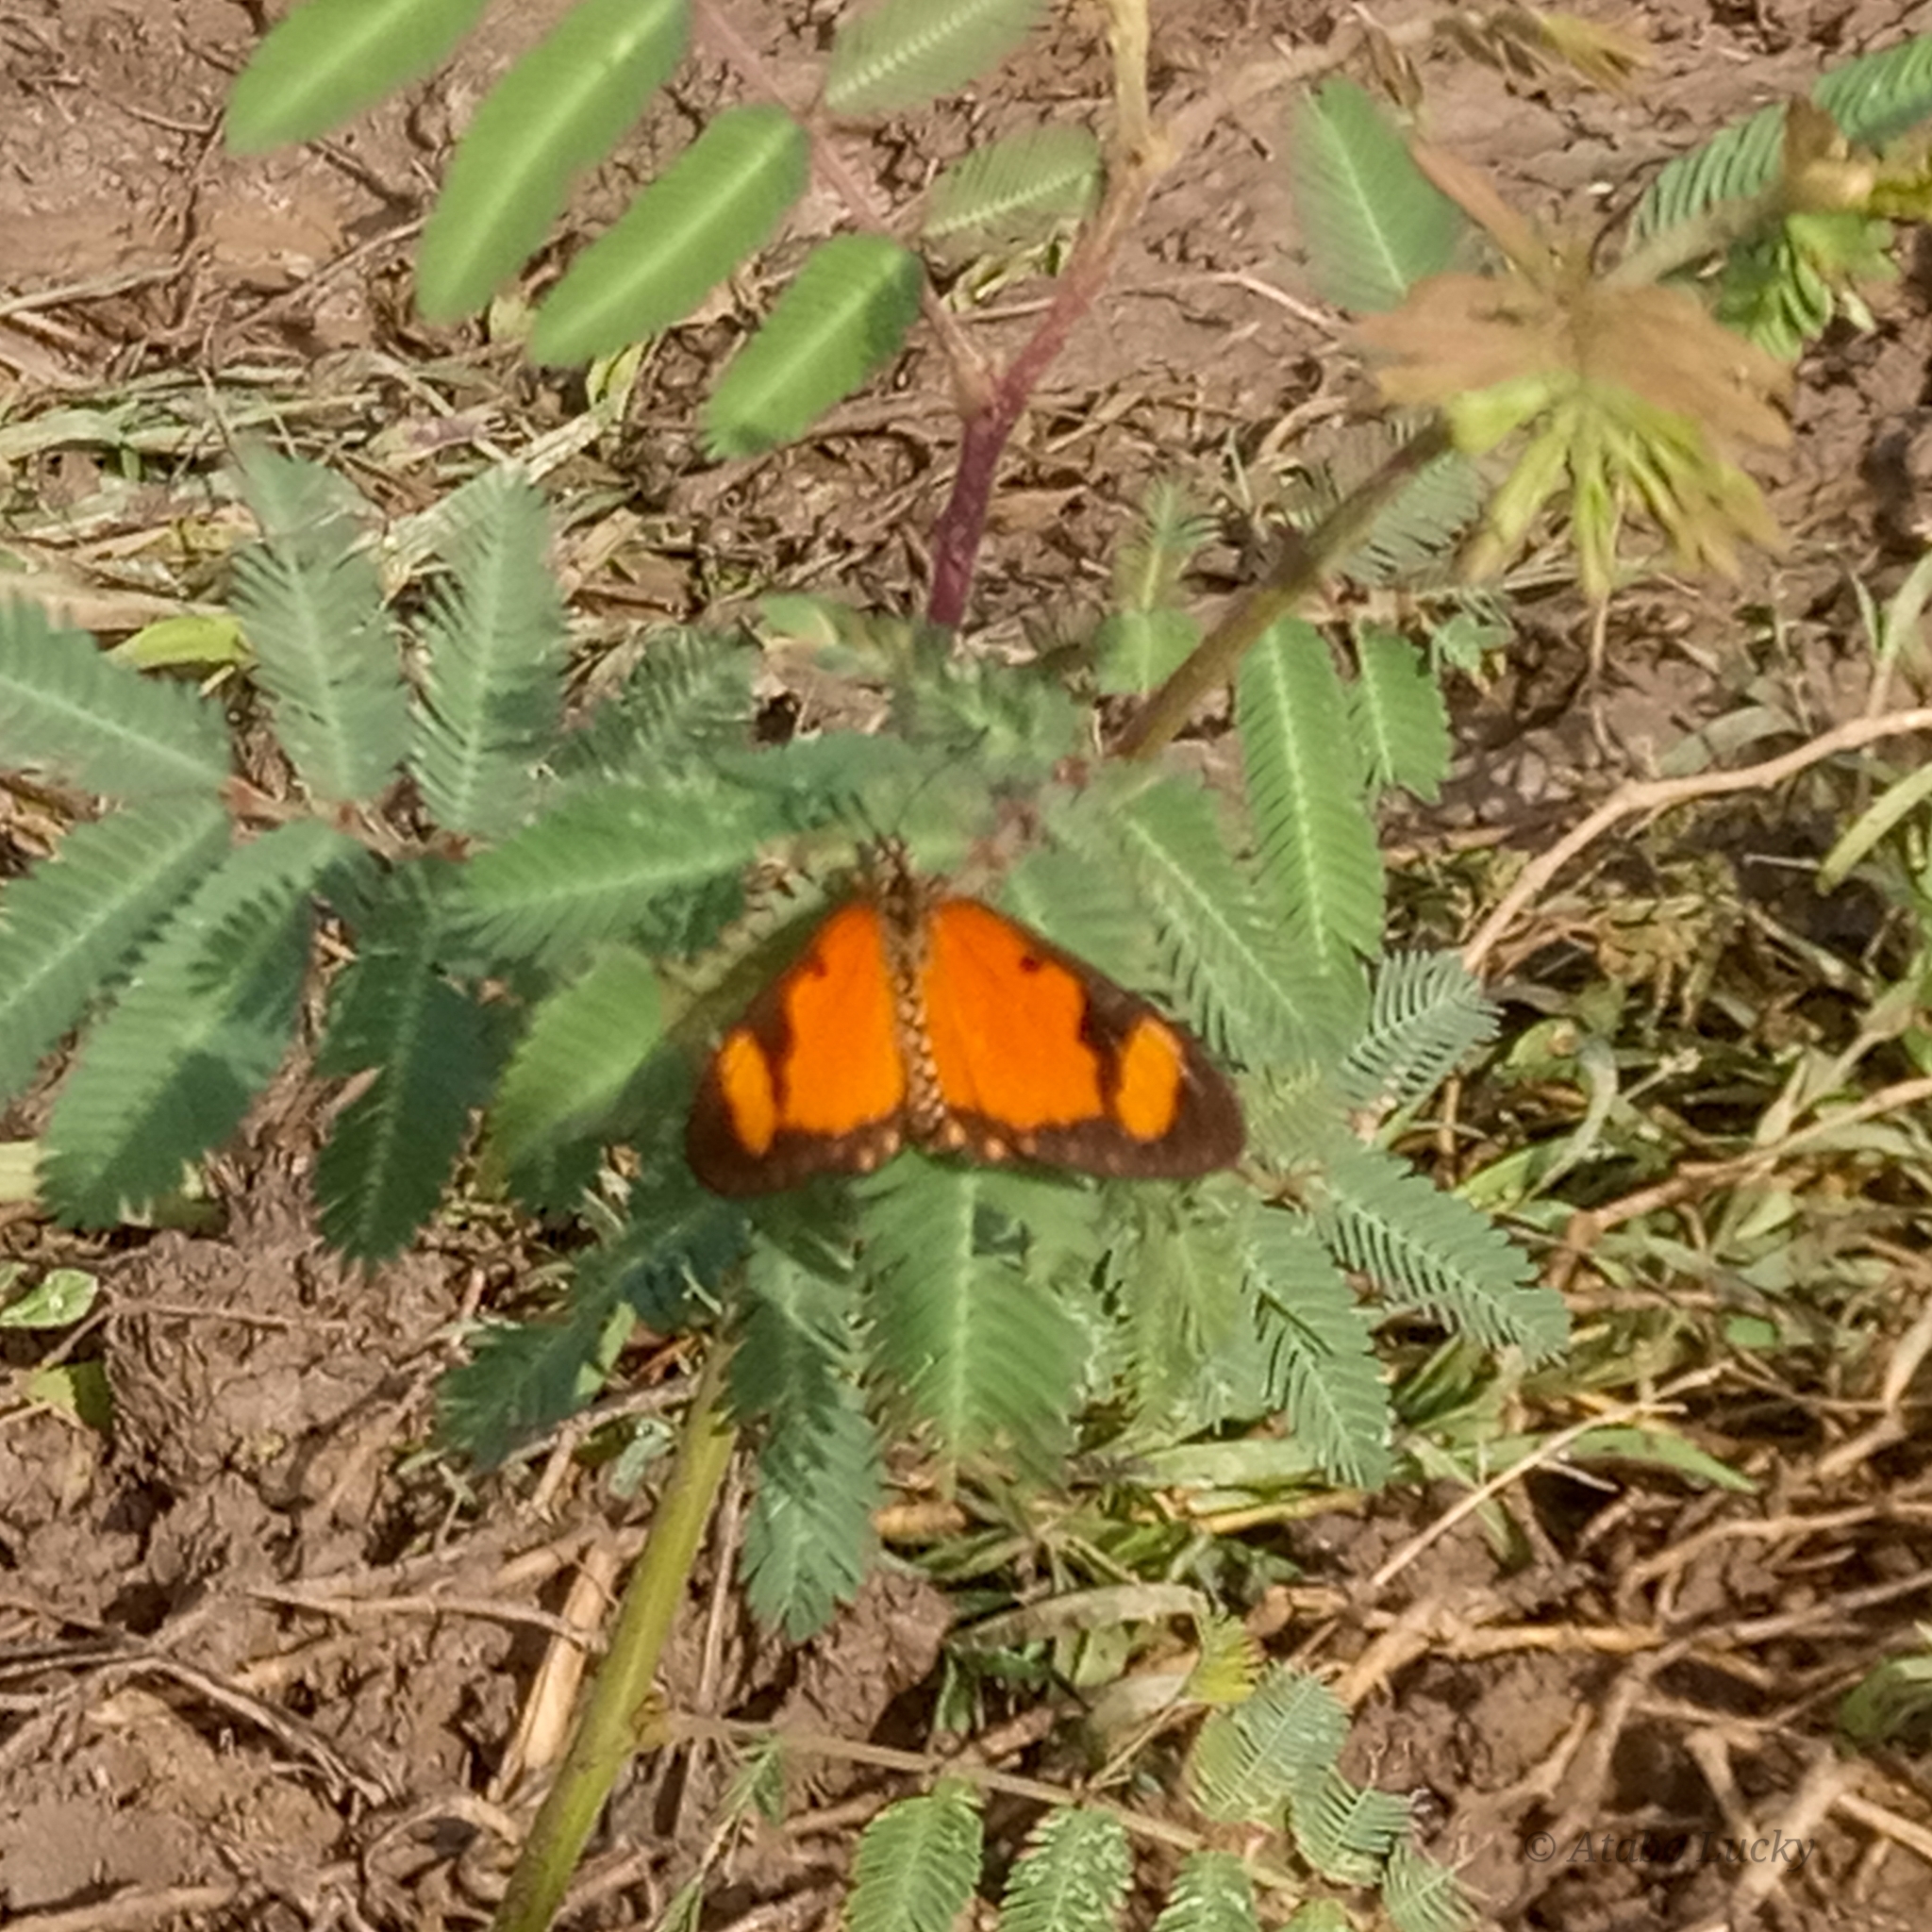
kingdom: Animalia
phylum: Arthropoda
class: Insecta
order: Lepidoptera
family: Nymphalidae
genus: Acraea
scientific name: Acraea Telchinia serena
